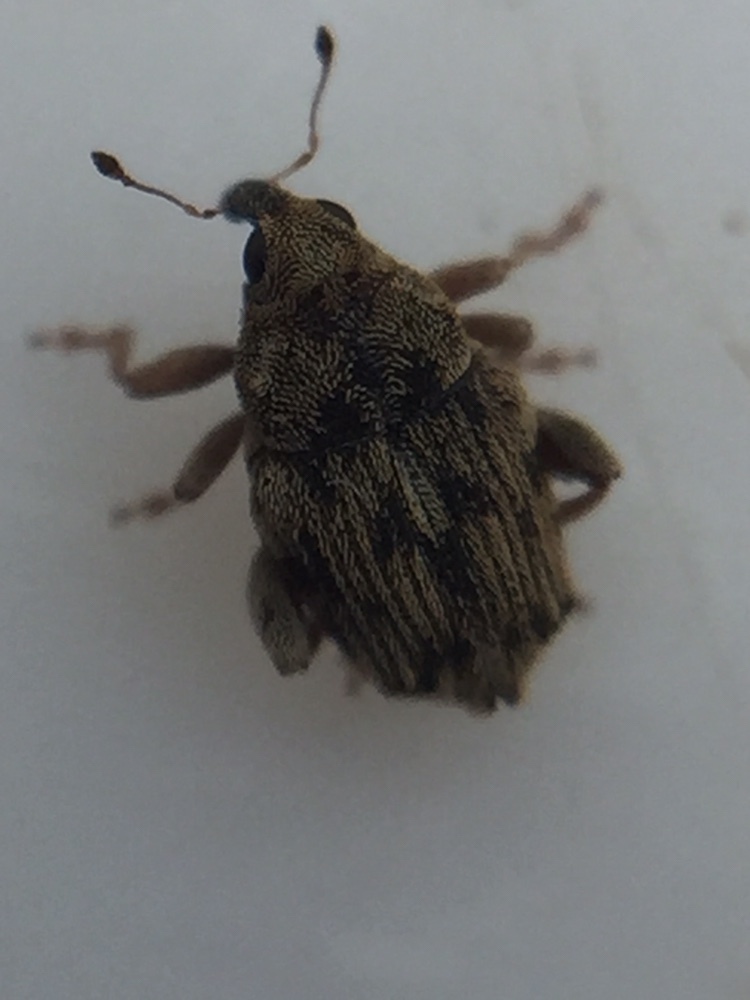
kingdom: Animalia
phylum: Arthropoda
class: Insecta
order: Coleoptera
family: Curculionidae
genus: Hypurus
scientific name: Hypurus bertrandi
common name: Weevil
